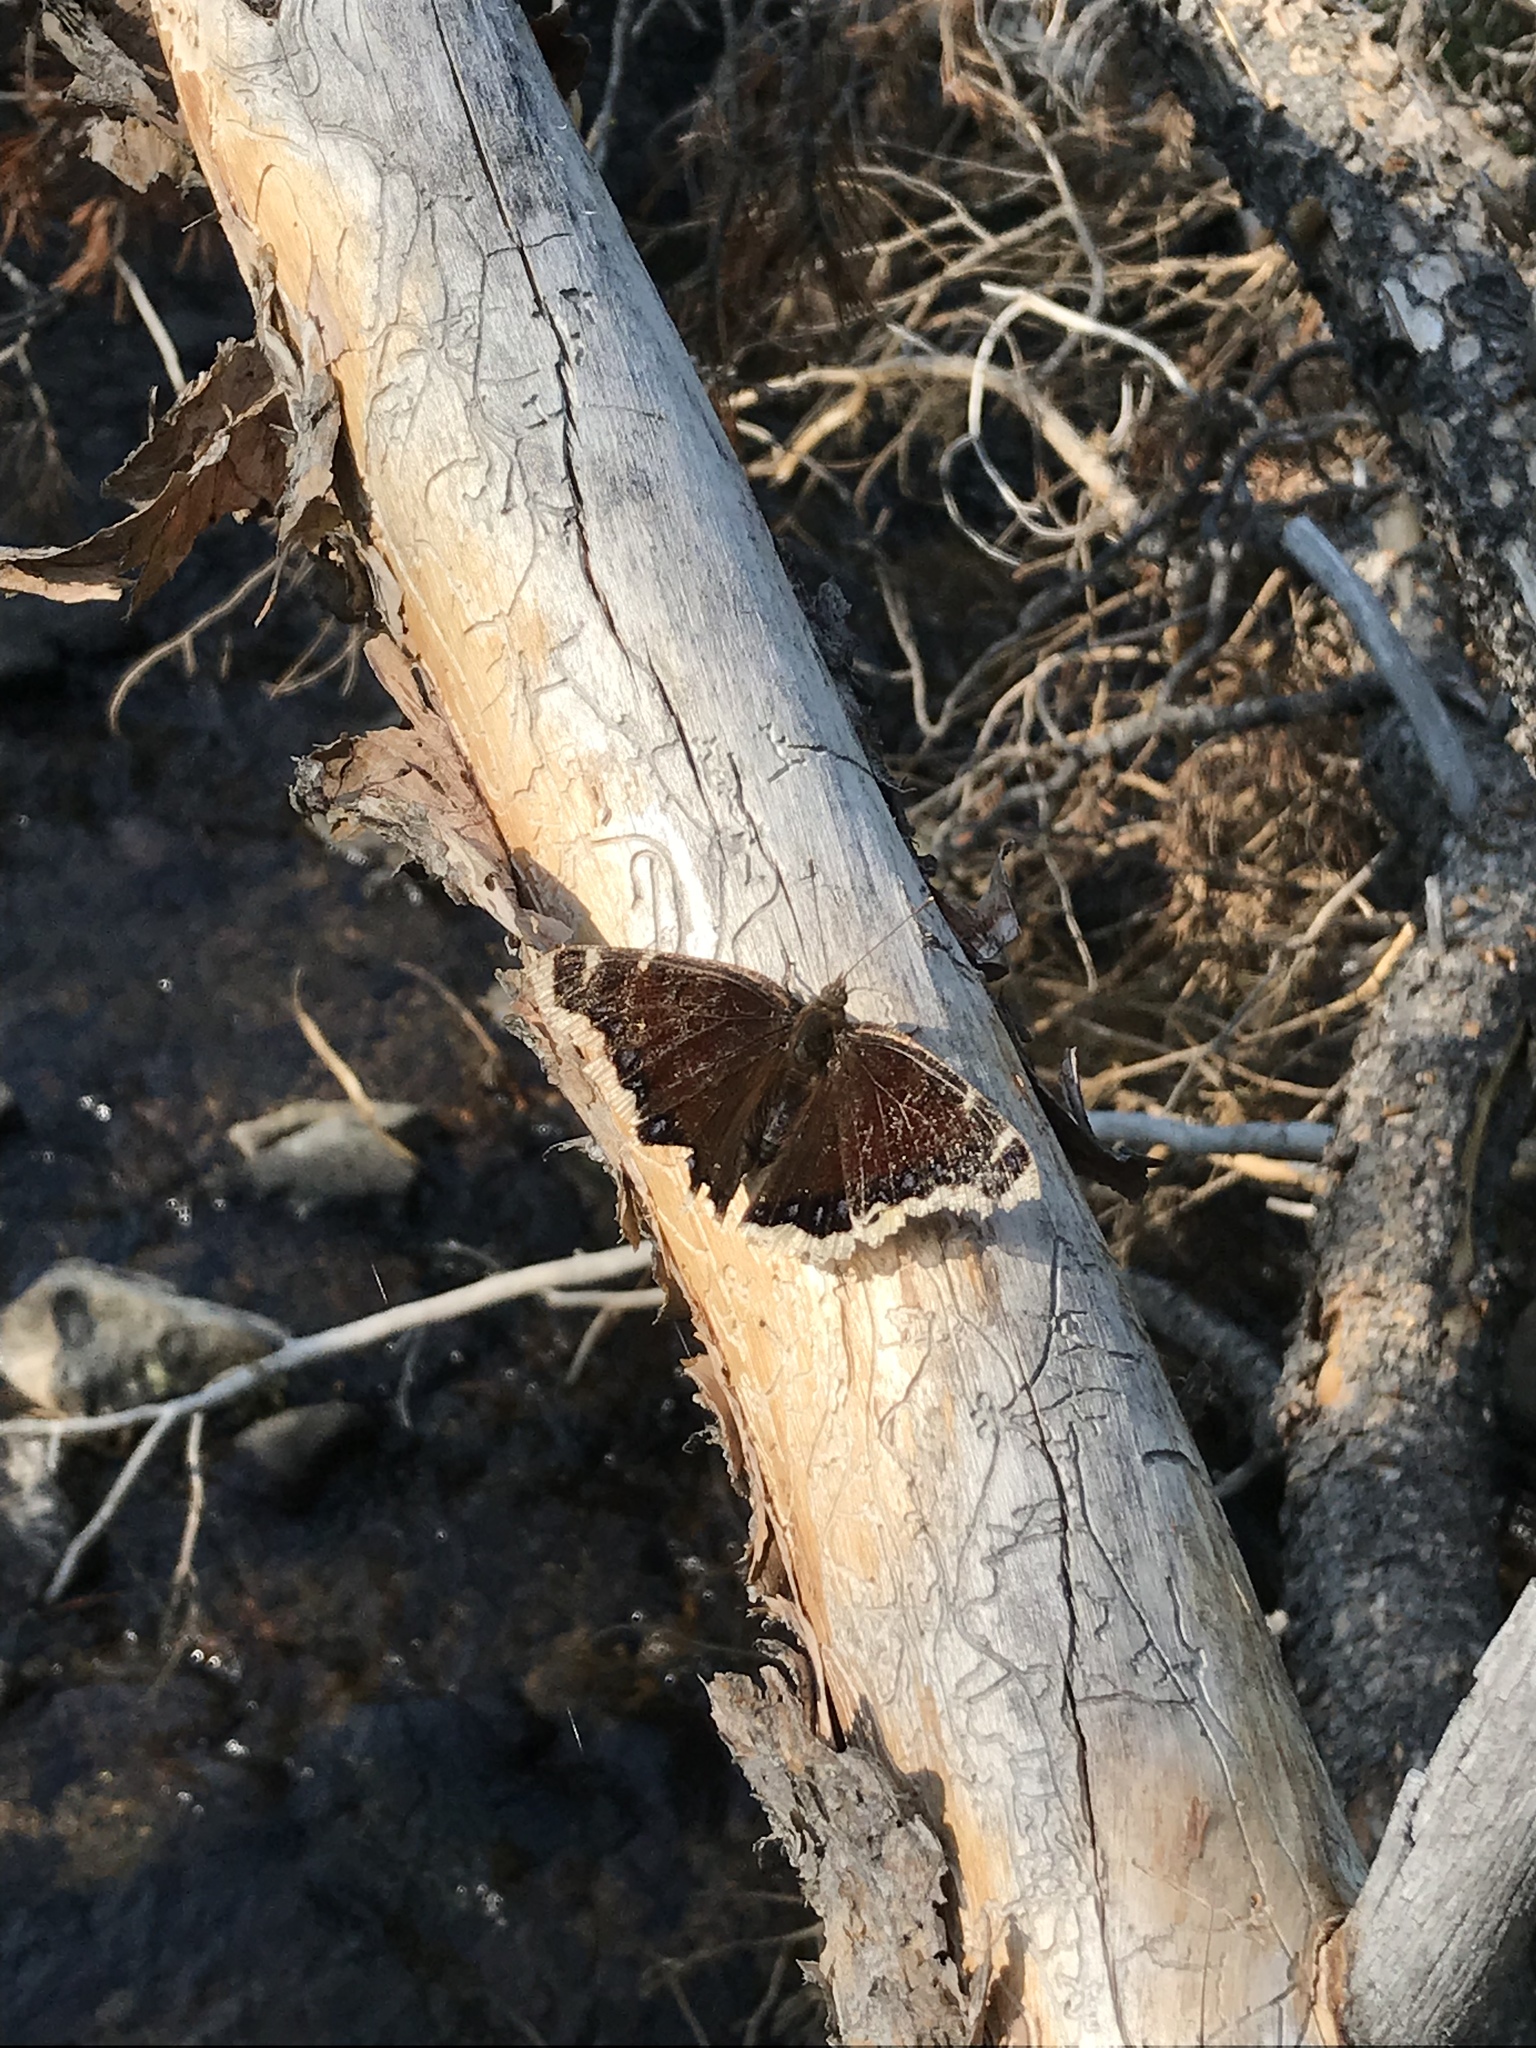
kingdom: Animalia
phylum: Arthropoda
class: Insecta
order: Lepidoptera
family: Nymphalidae
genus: Nymphalis
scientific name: Nymphalis antiopa
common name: Camberwell beauty
